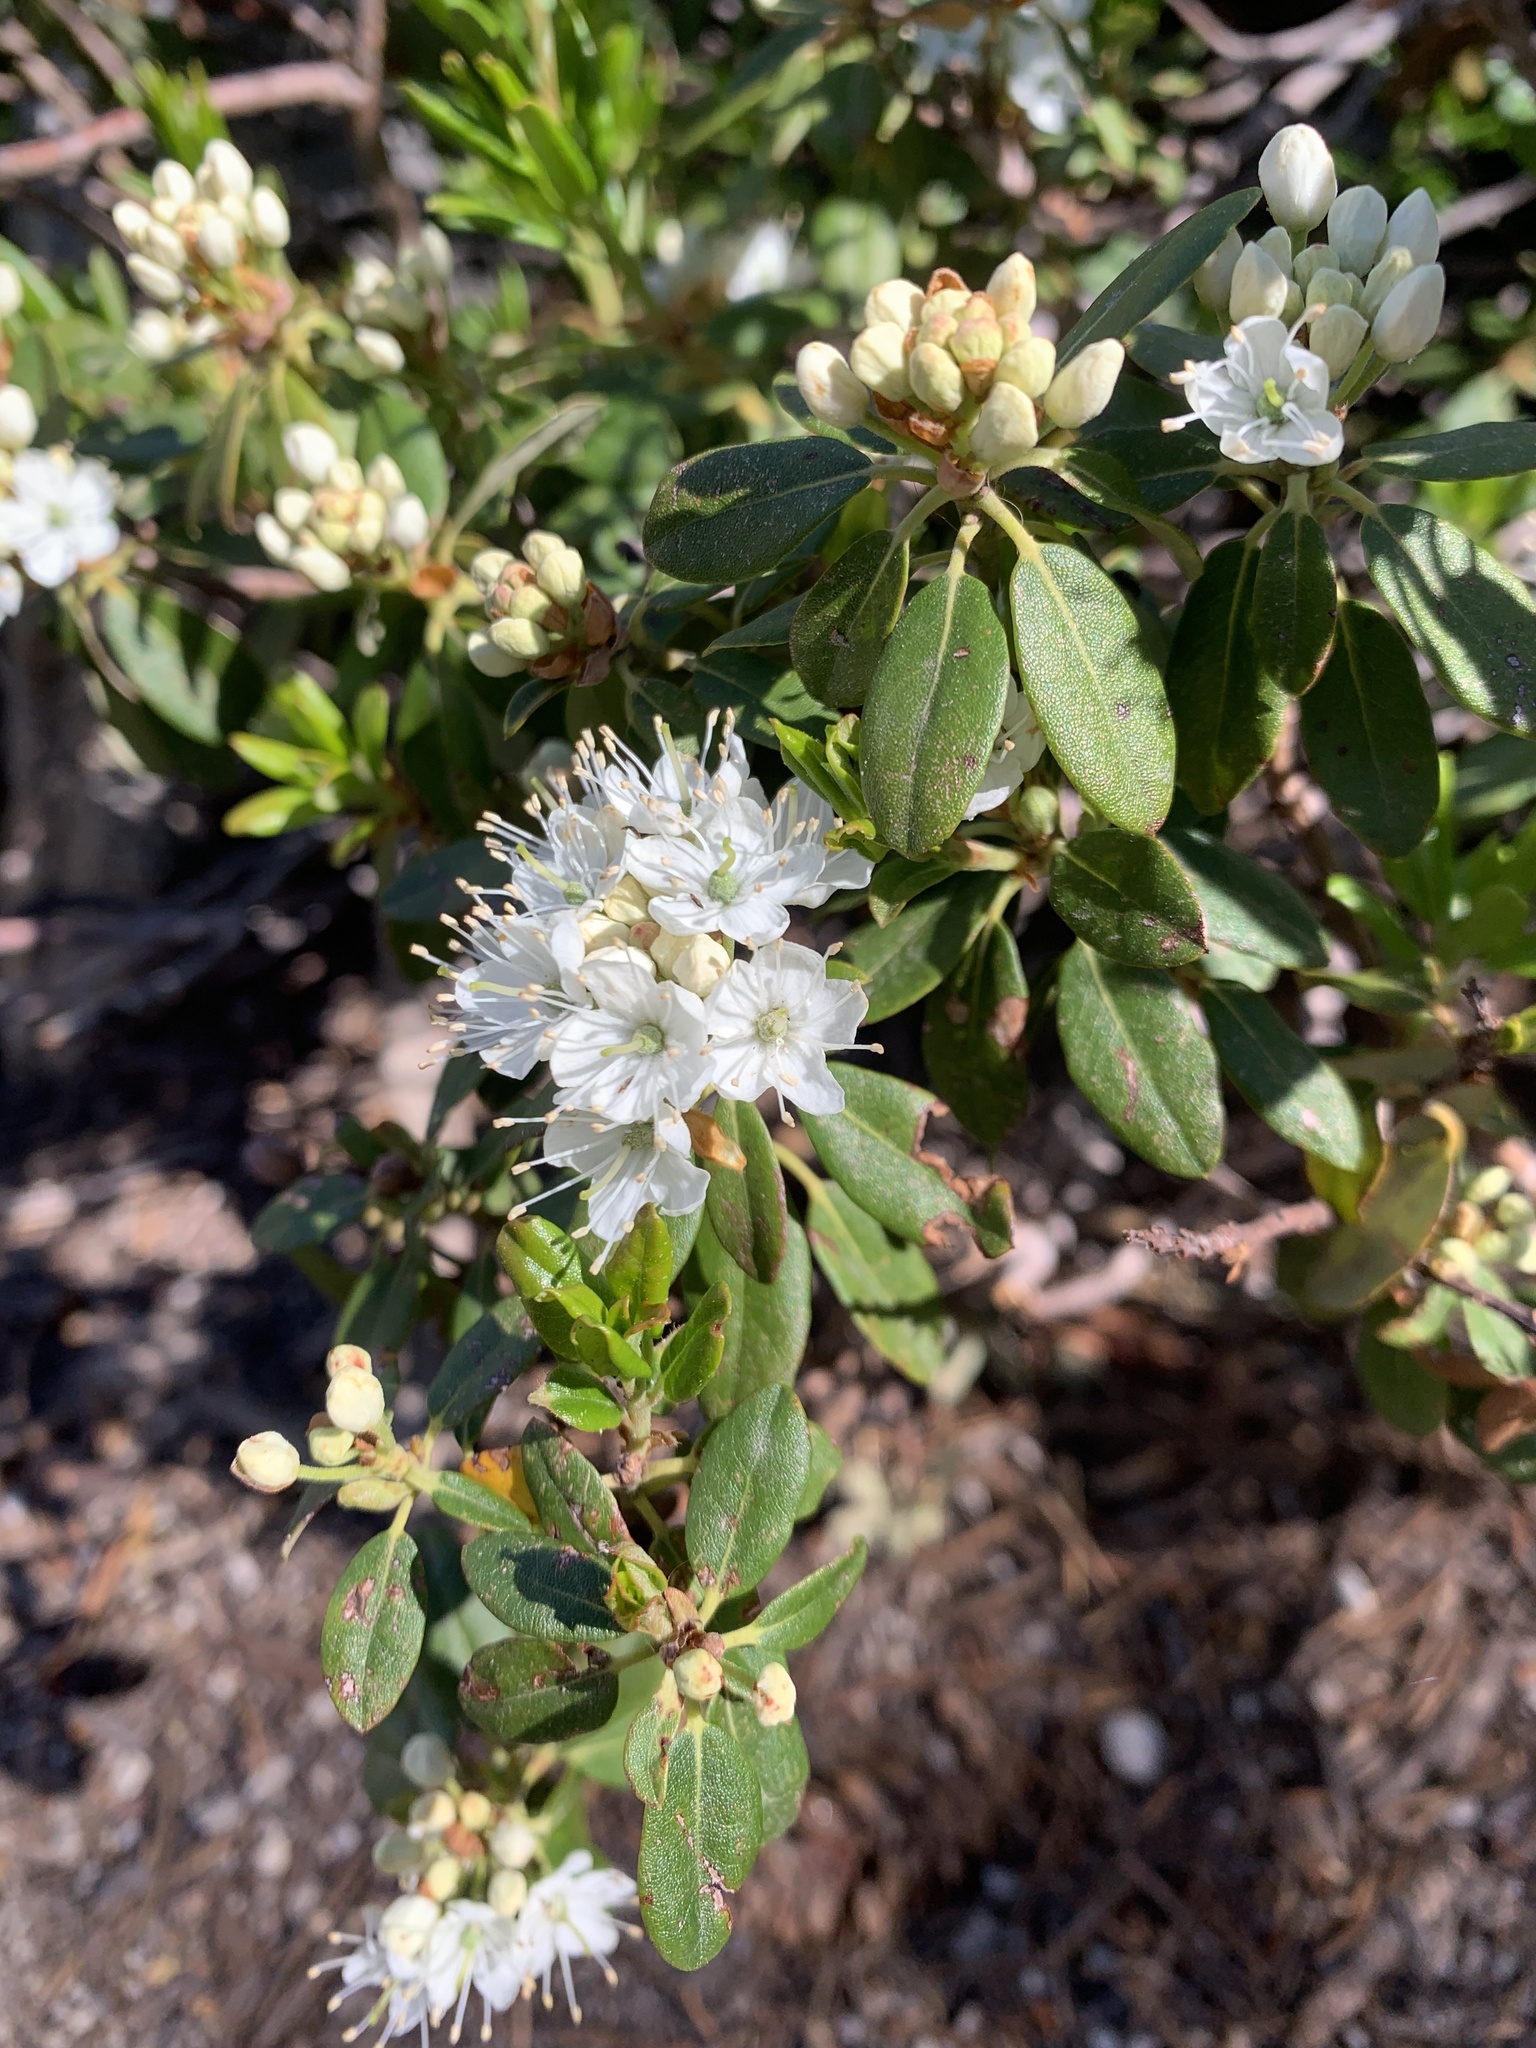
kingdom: Plantae
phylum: Tracheophyta
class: Magnoliopsida
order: Ericales
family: Ericaceae
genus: Rhododendron
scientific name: Rhododendron columbianum
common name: Western labrador tea
